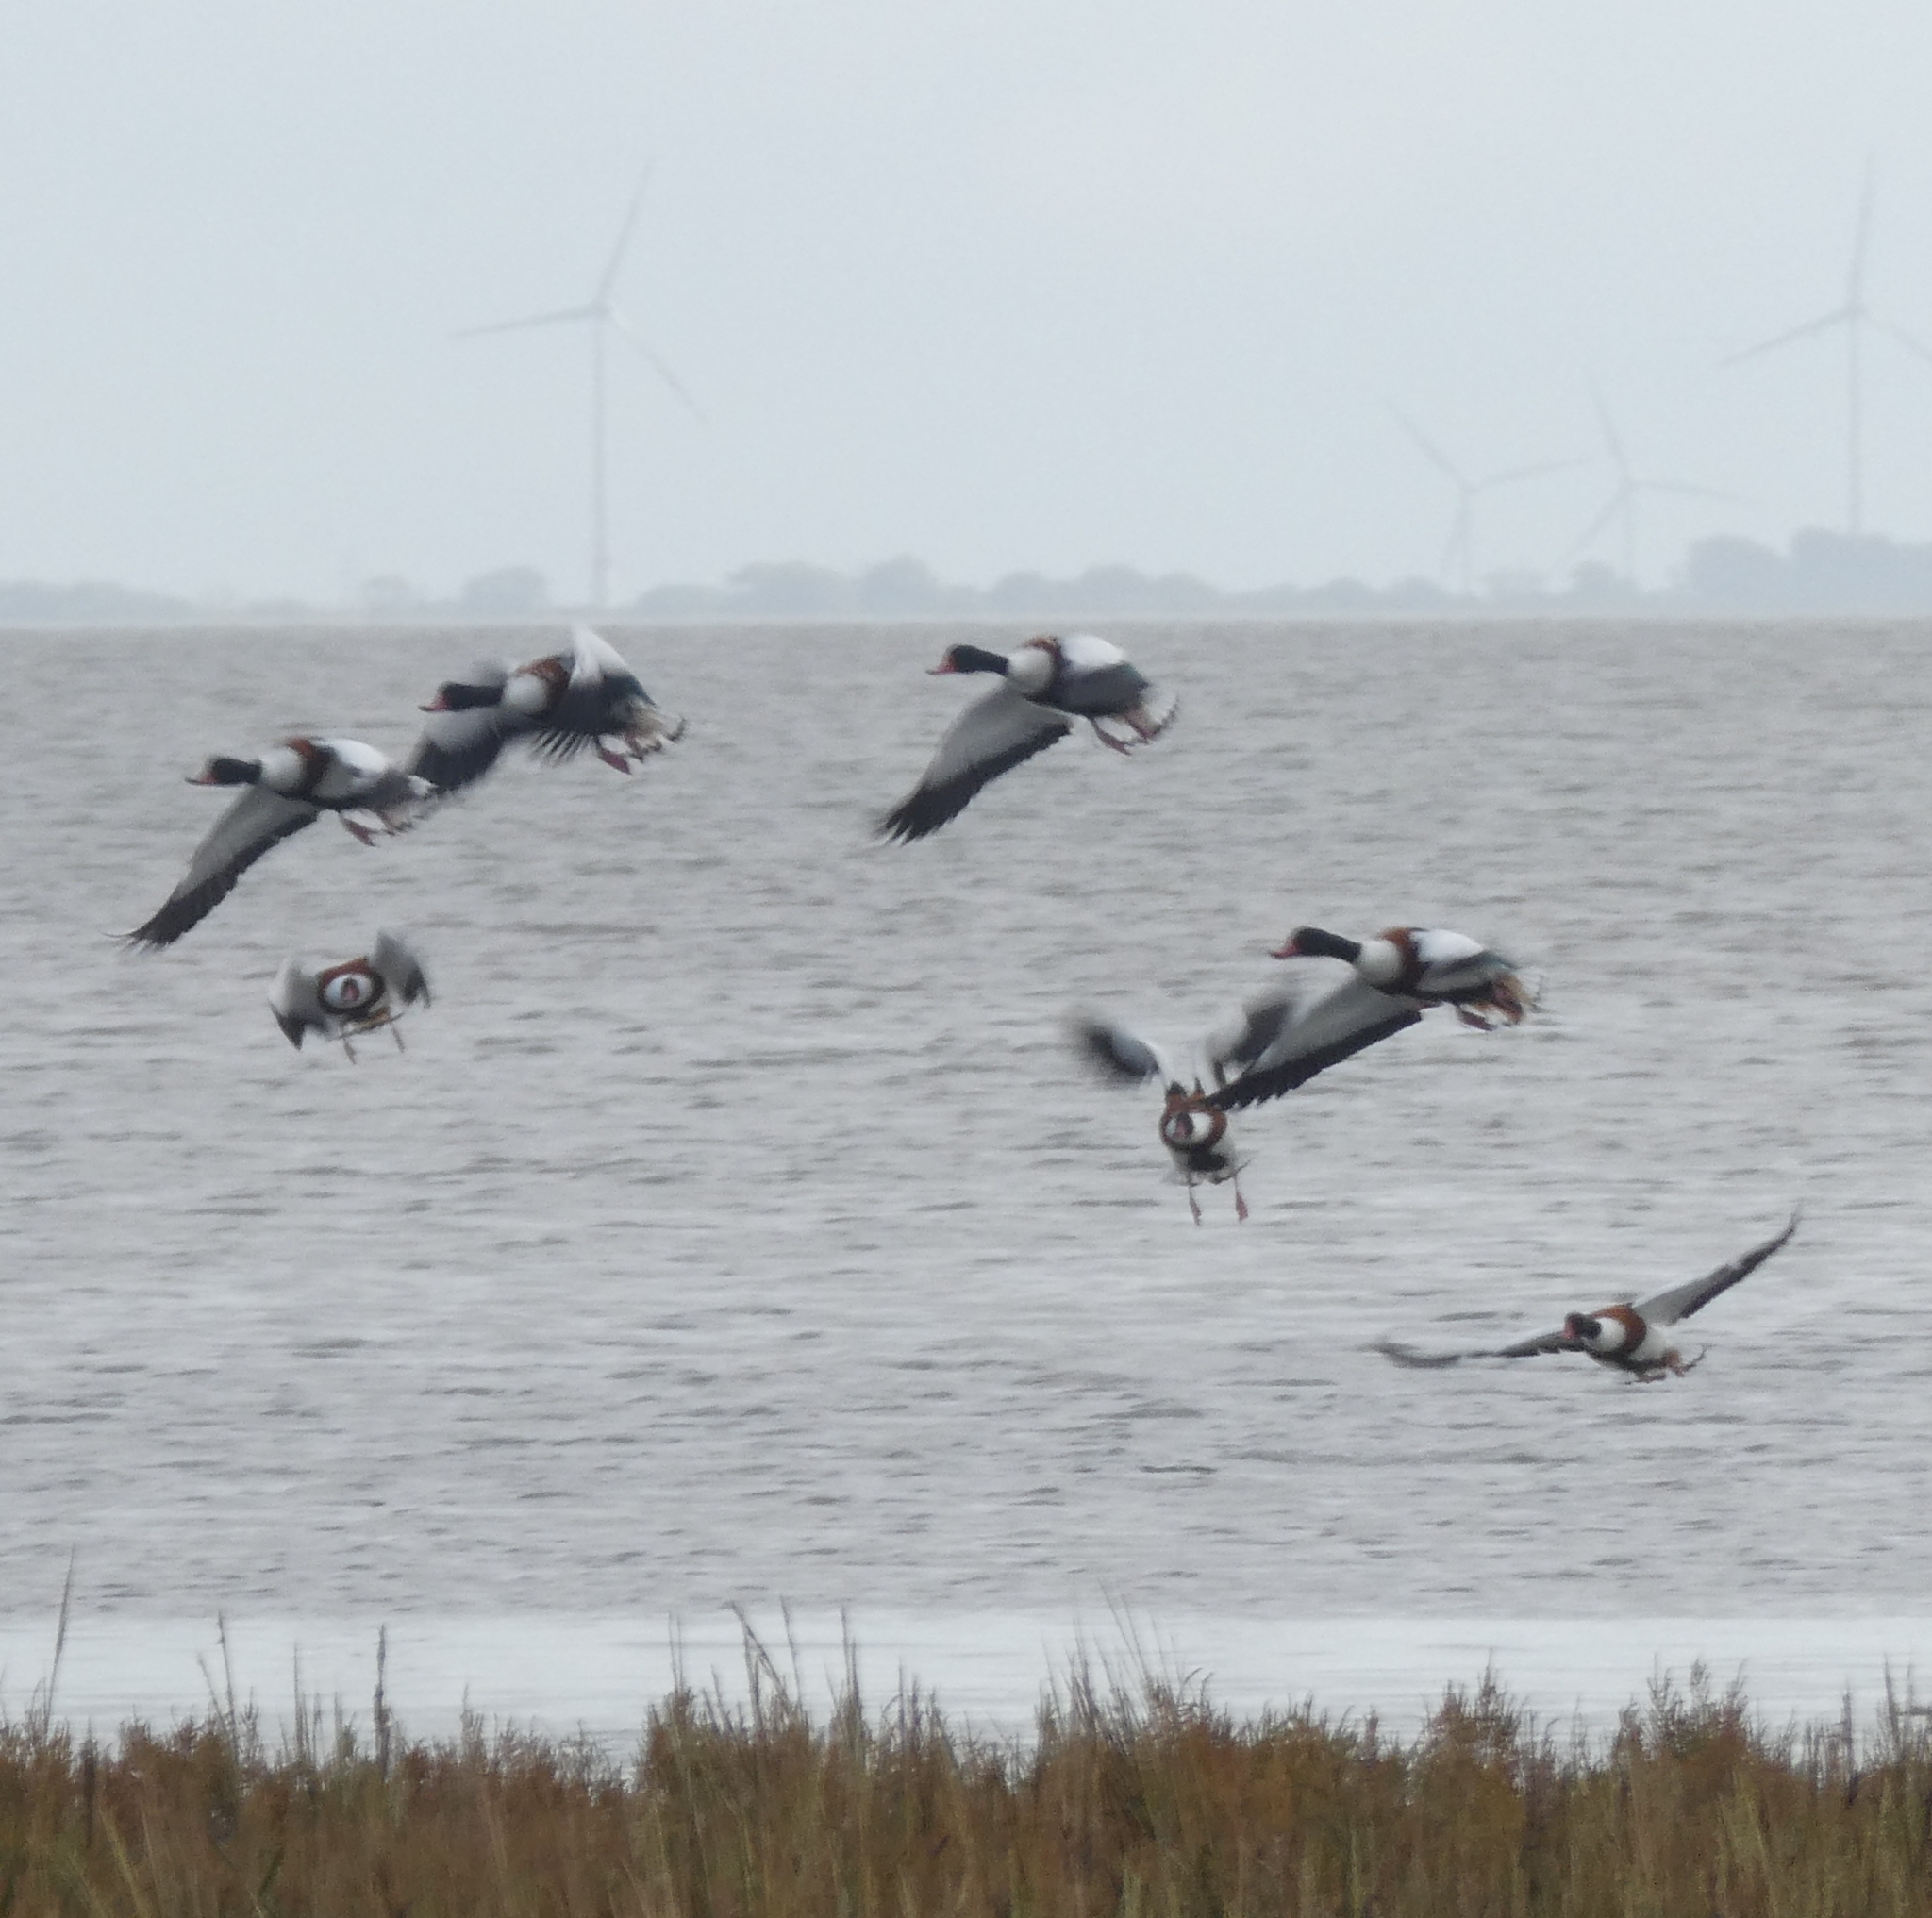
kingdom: Animalia
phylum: Chordata
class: Aves
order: Anseriformes
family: Anatidae
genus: Tadorna
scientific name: Tadorna tadorna
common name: Common shelduck
